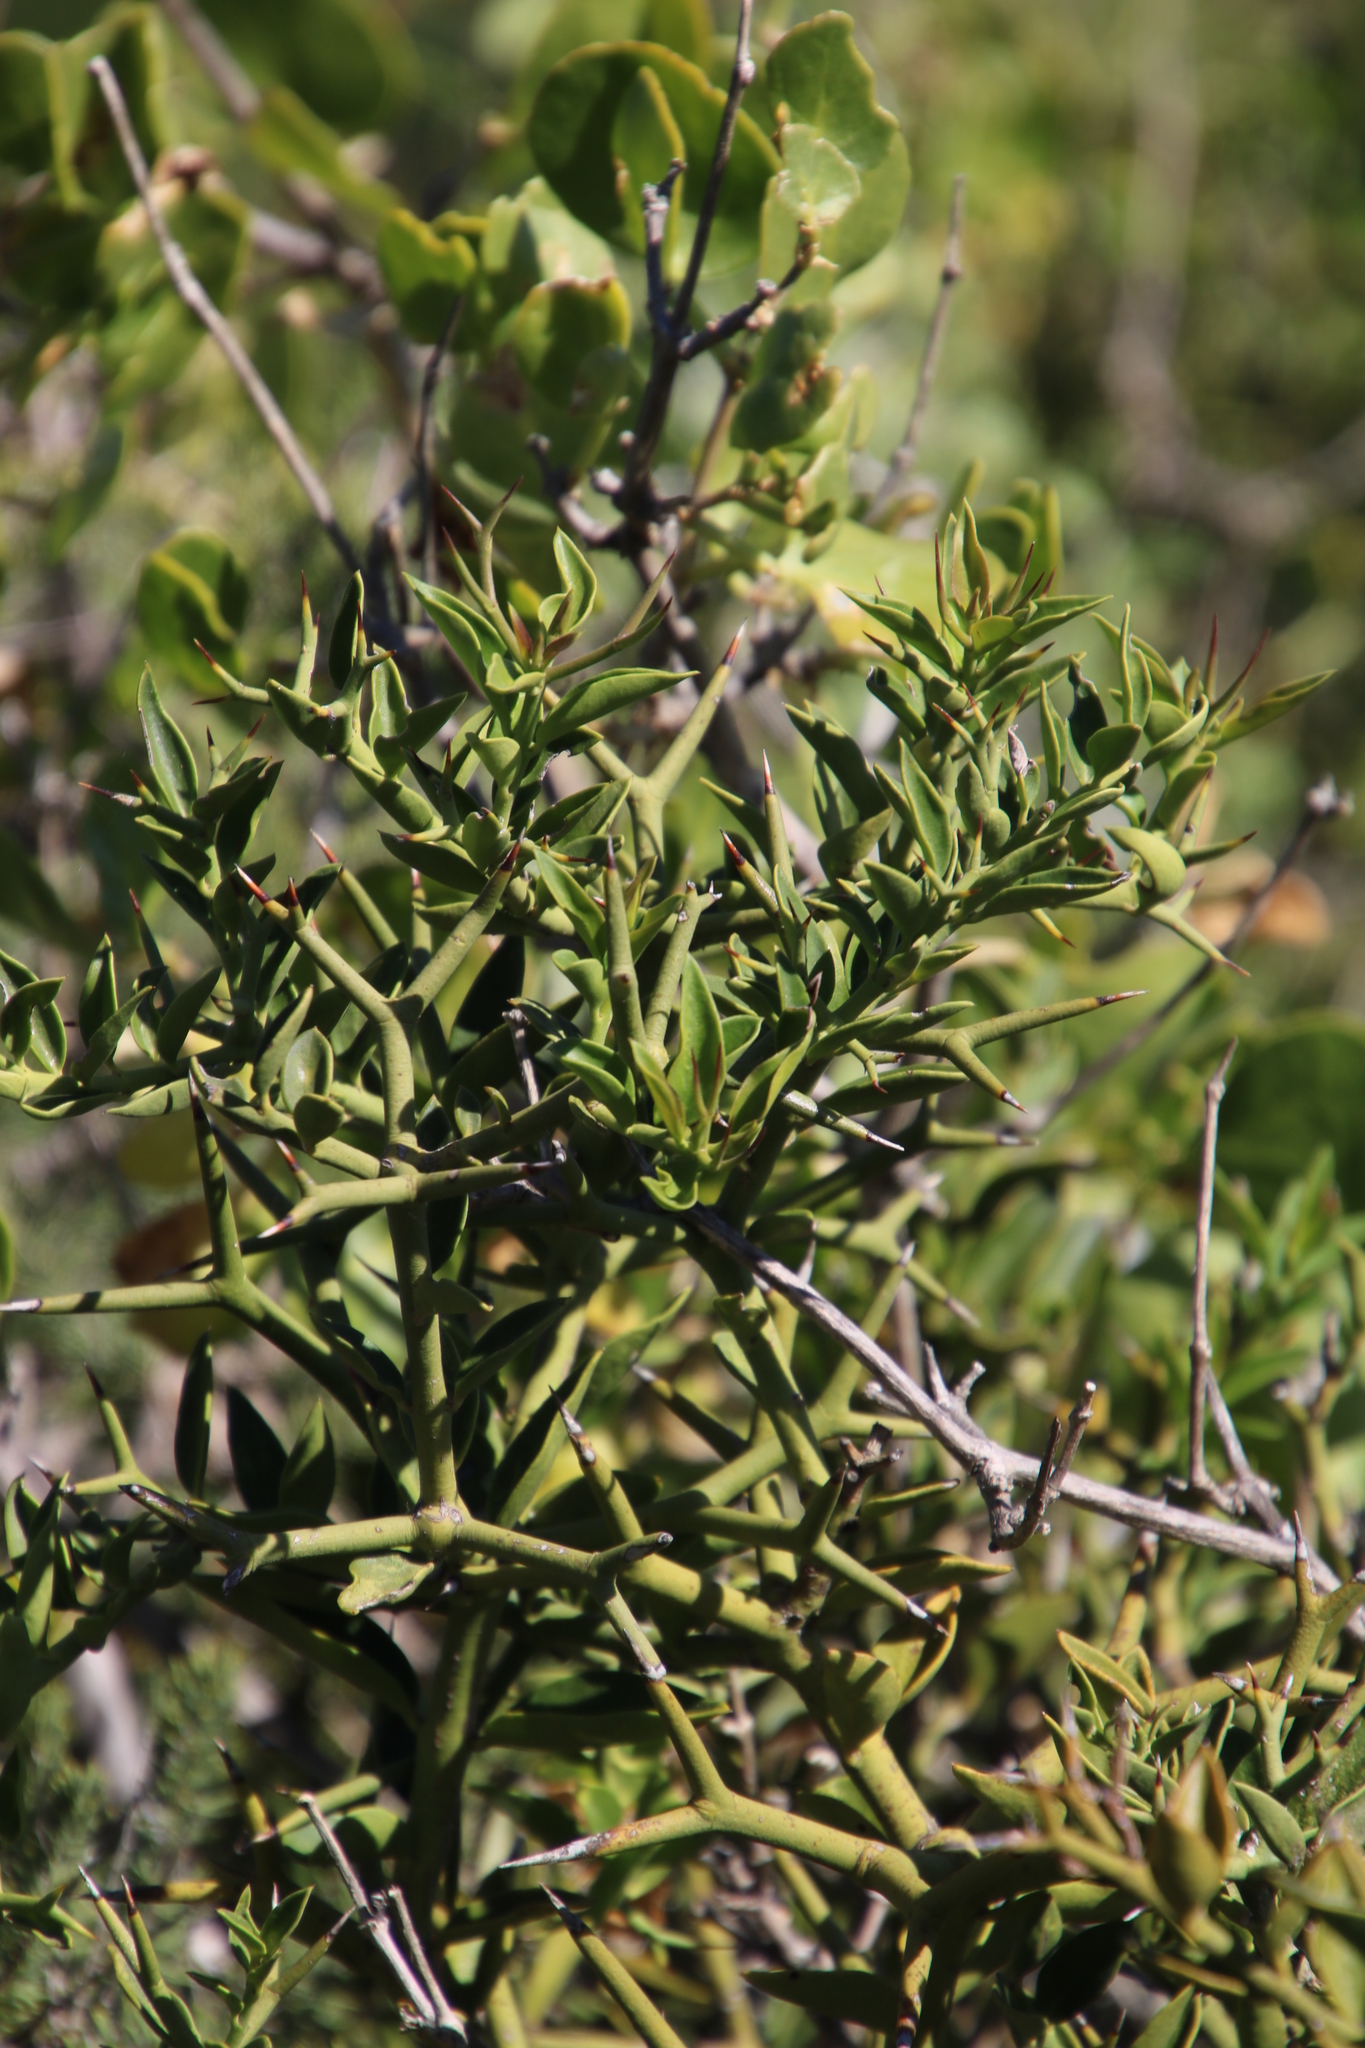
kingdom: Plantae
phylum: Tracheophyta
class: Magnoliopsida
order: Gentianales
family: Apocynaceae
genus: Carissa
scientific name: Carissa haematocarpa
